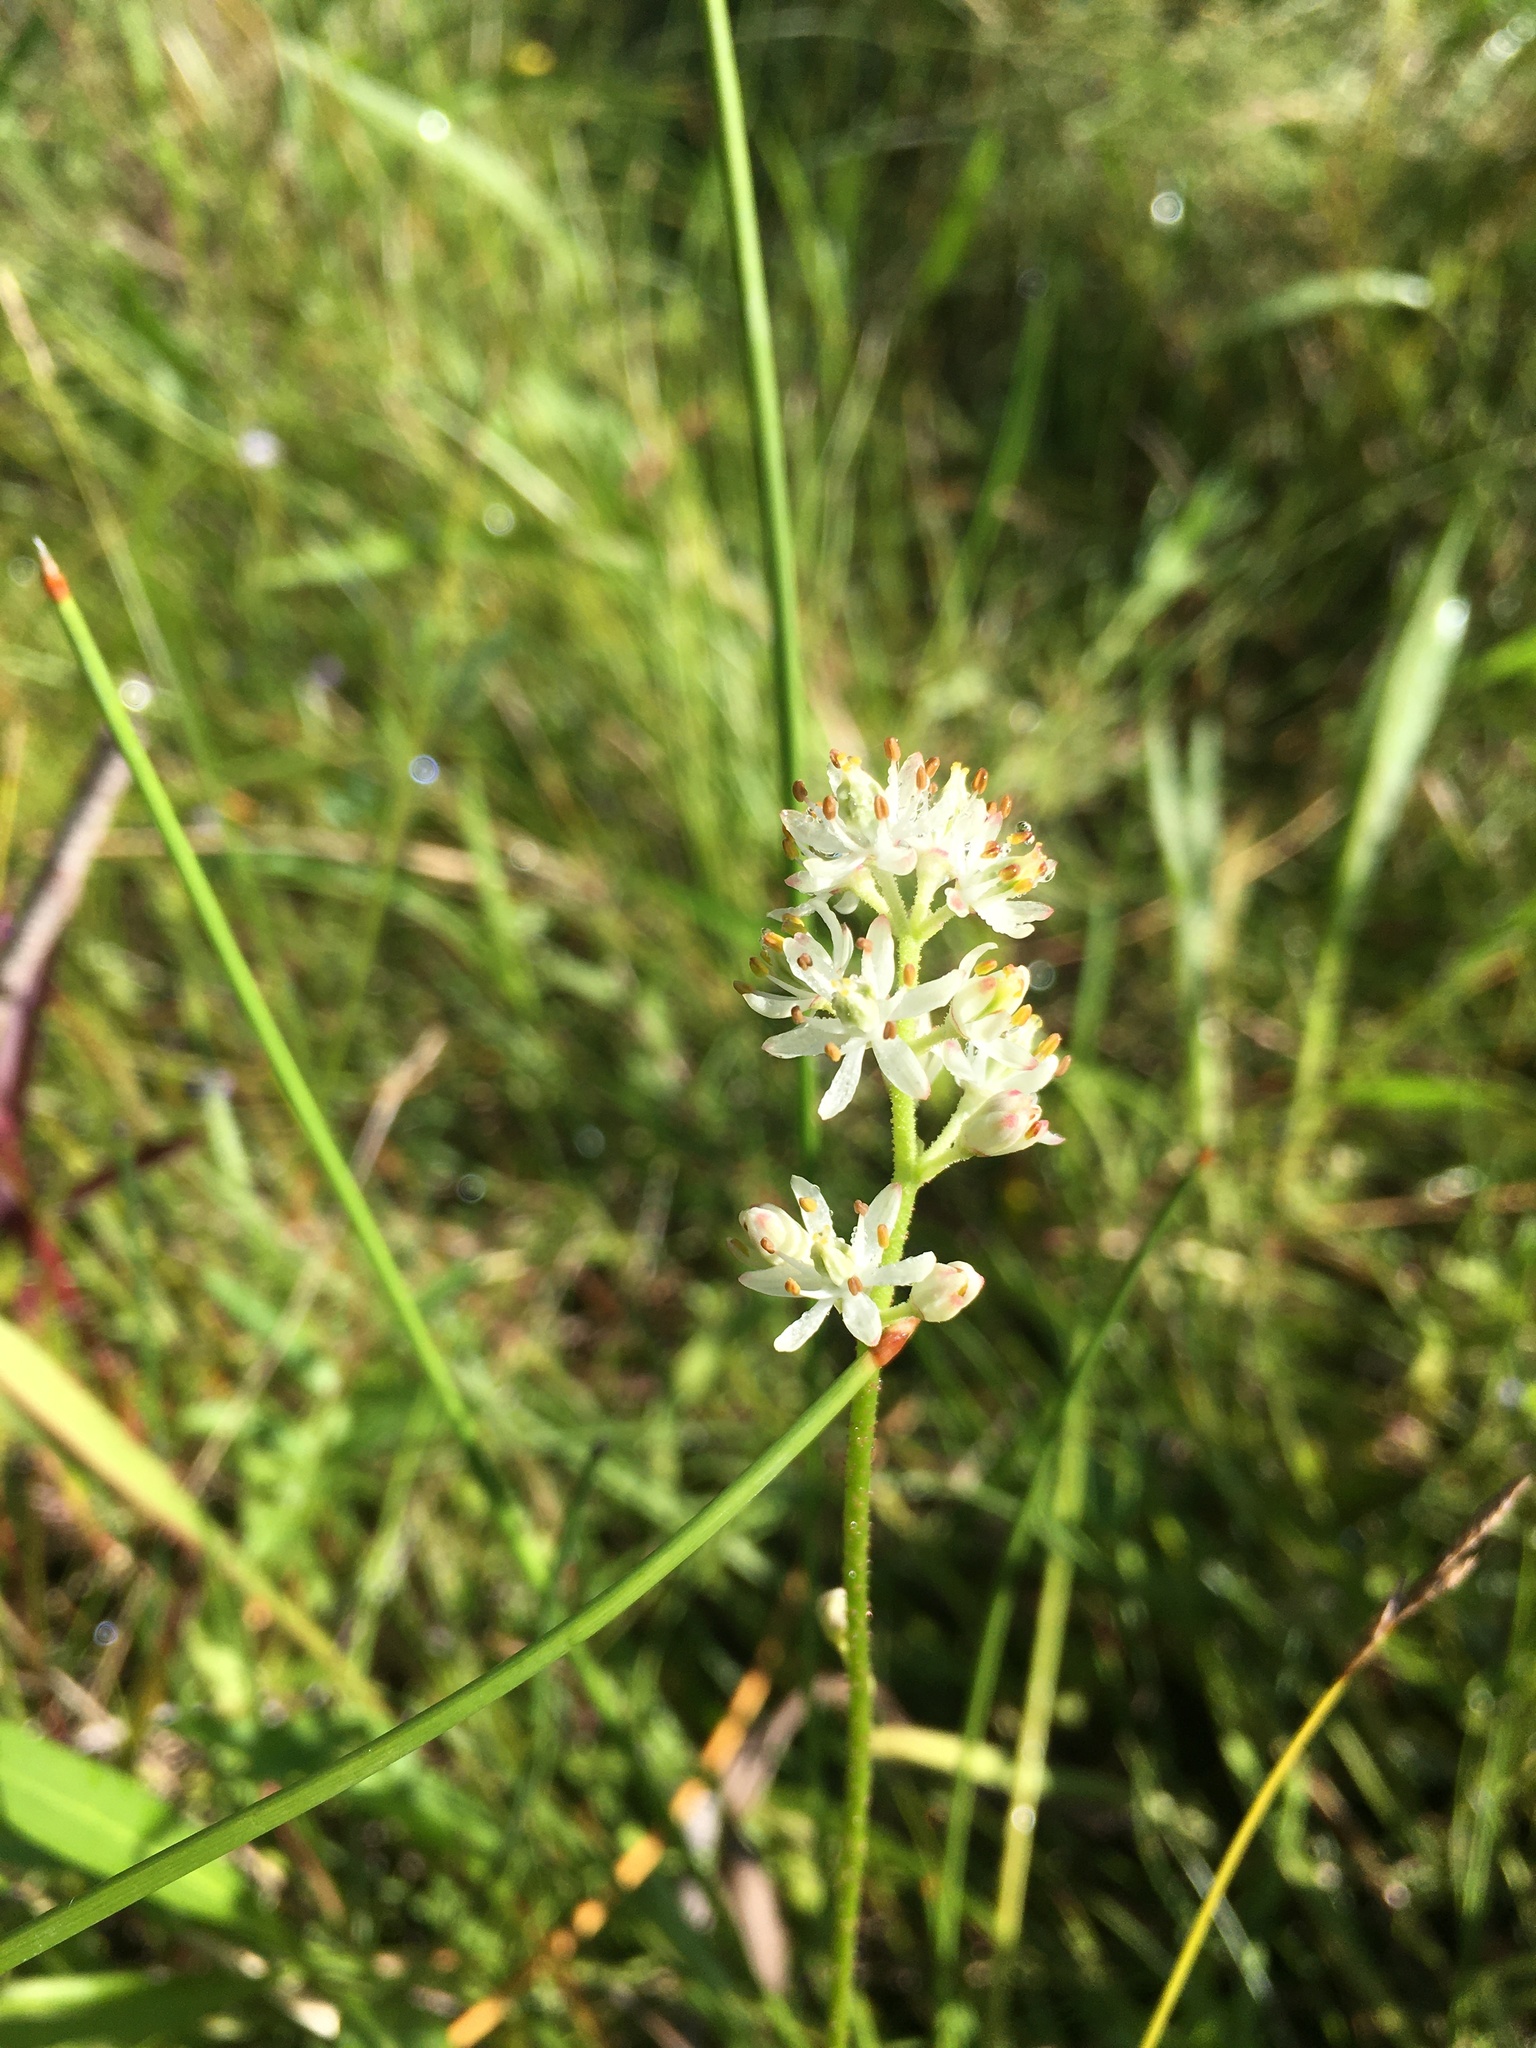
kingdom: Plantae
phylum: Tracheophyta
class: Liliopsida
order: Alismatales
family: Tofieldiaceae
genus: Triantha
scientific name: Triantha glutinosa
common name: Glutinous tofieldia
